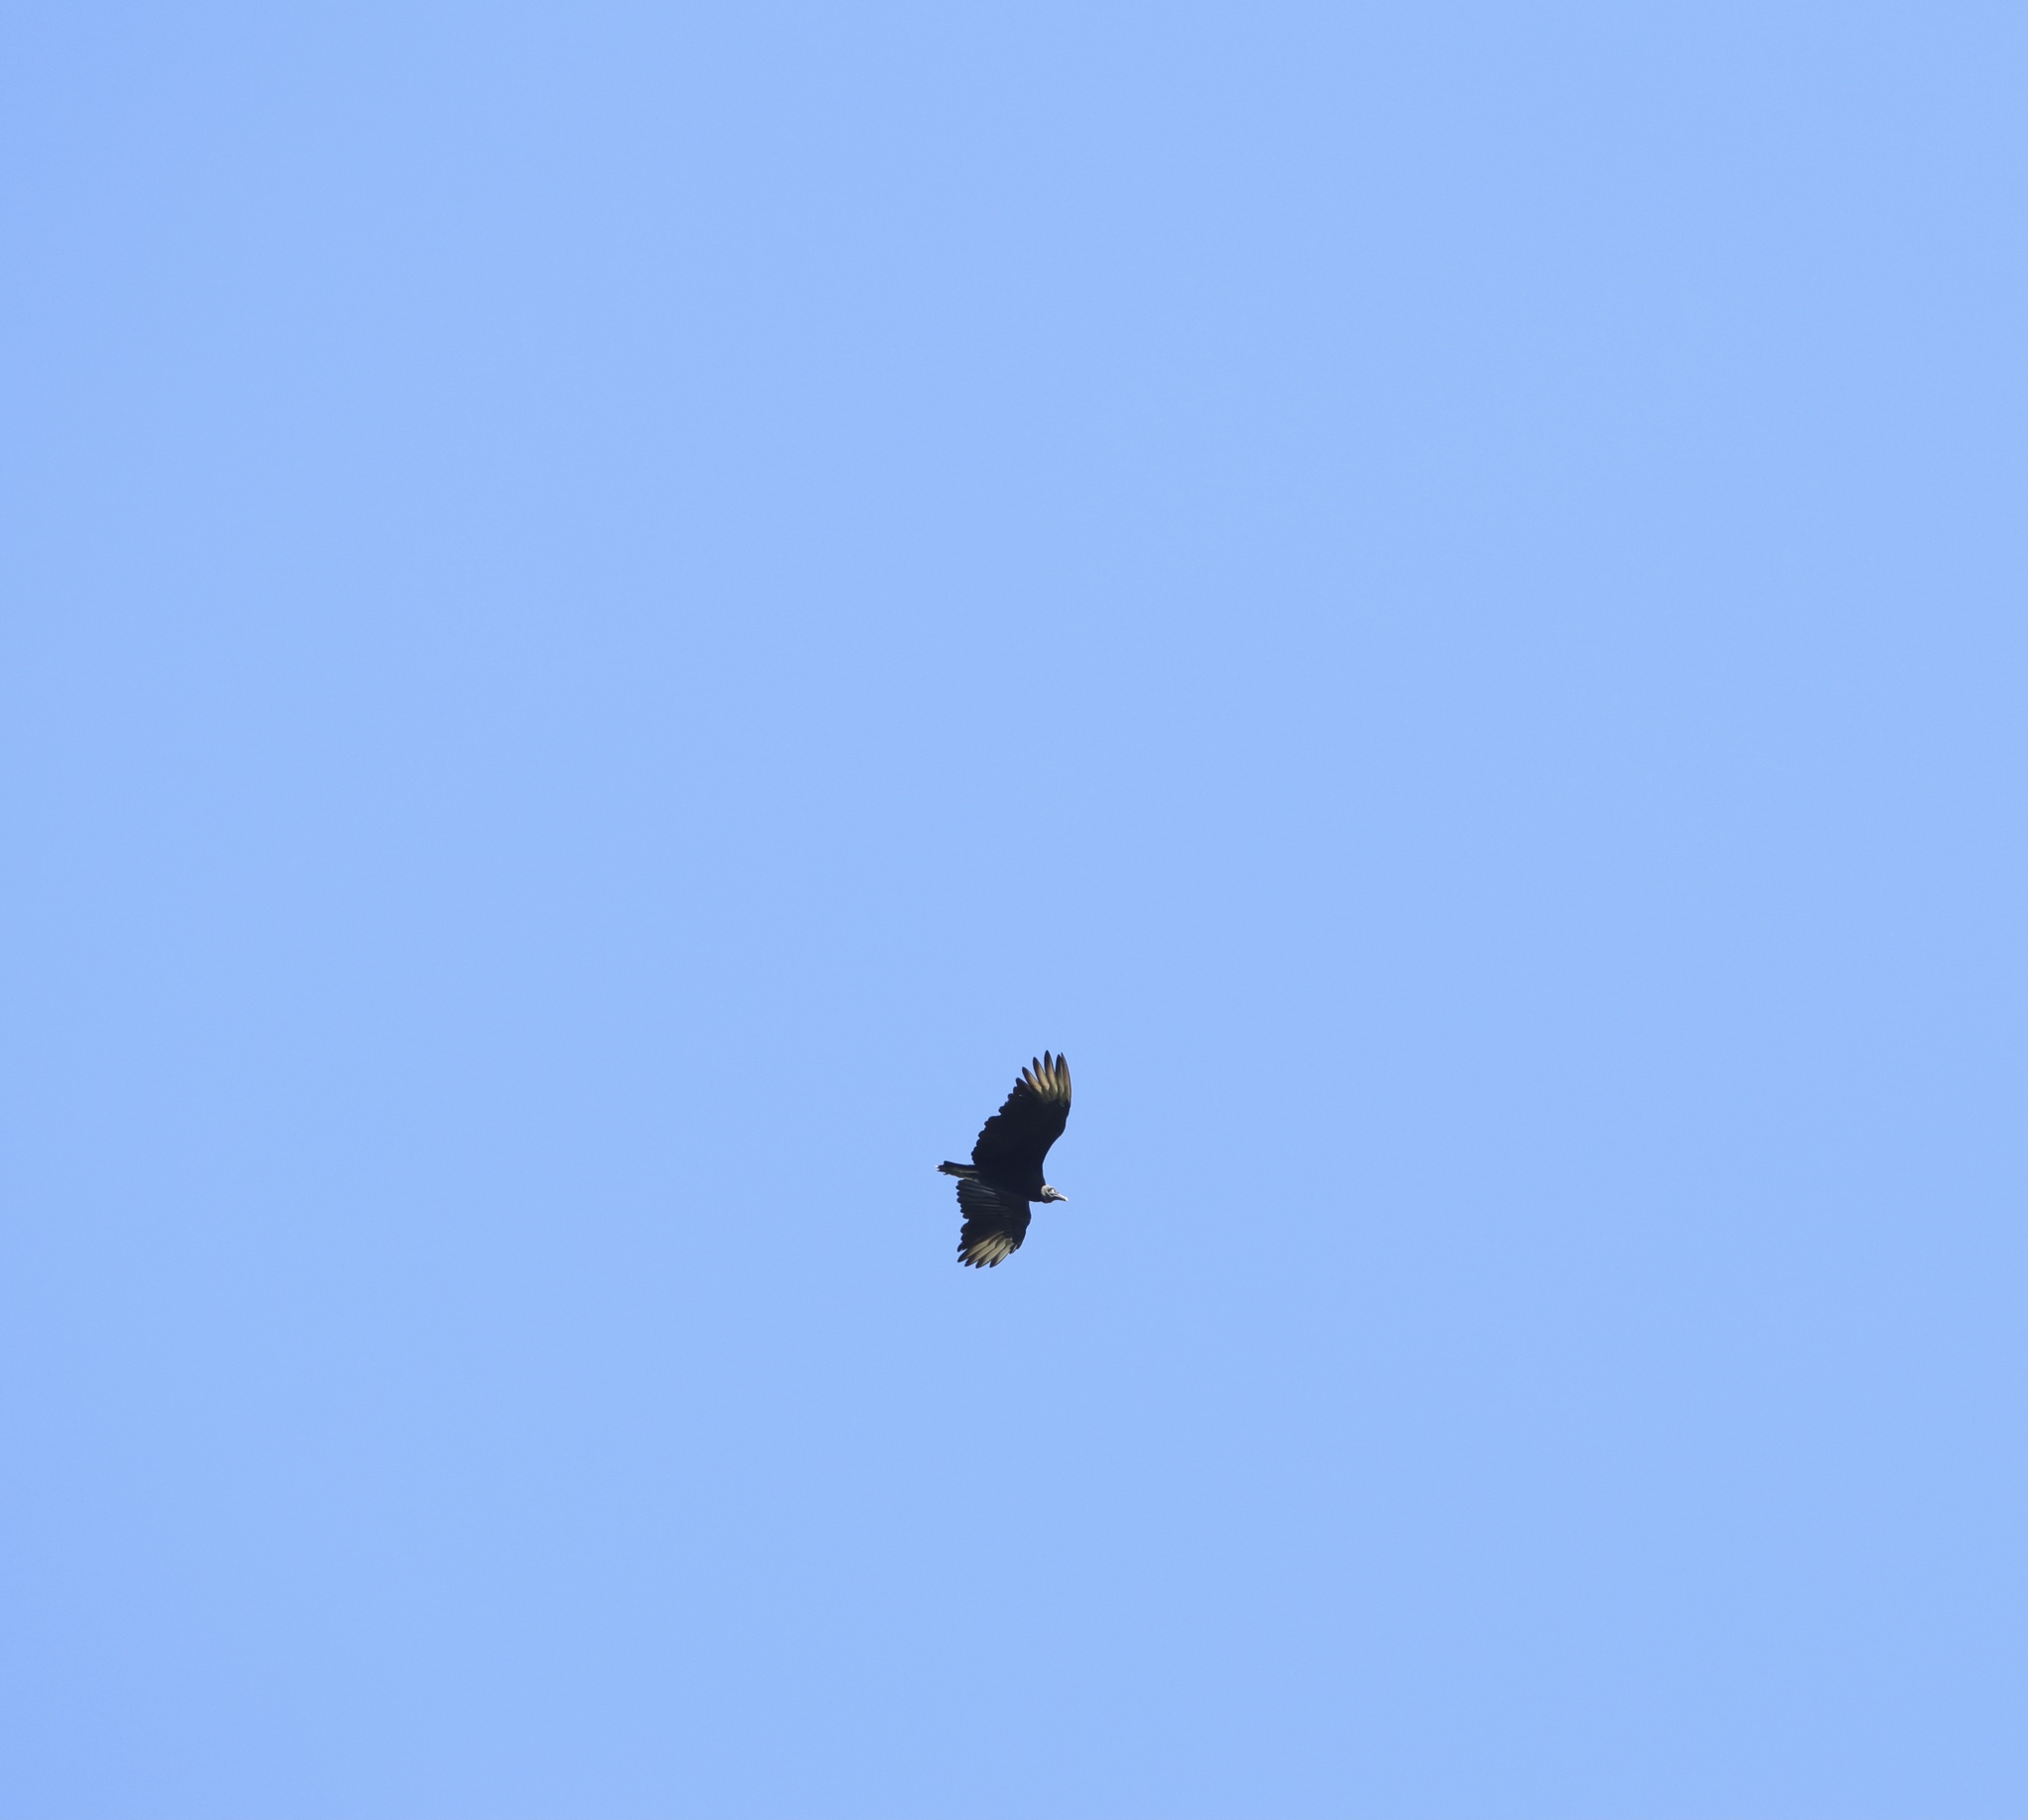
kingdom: Animalia
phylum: Chordata
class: Aves
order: Accipitriformes
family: Cathartidae
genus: Coragyps
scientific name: Coragyps atratus
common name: Black vulture
